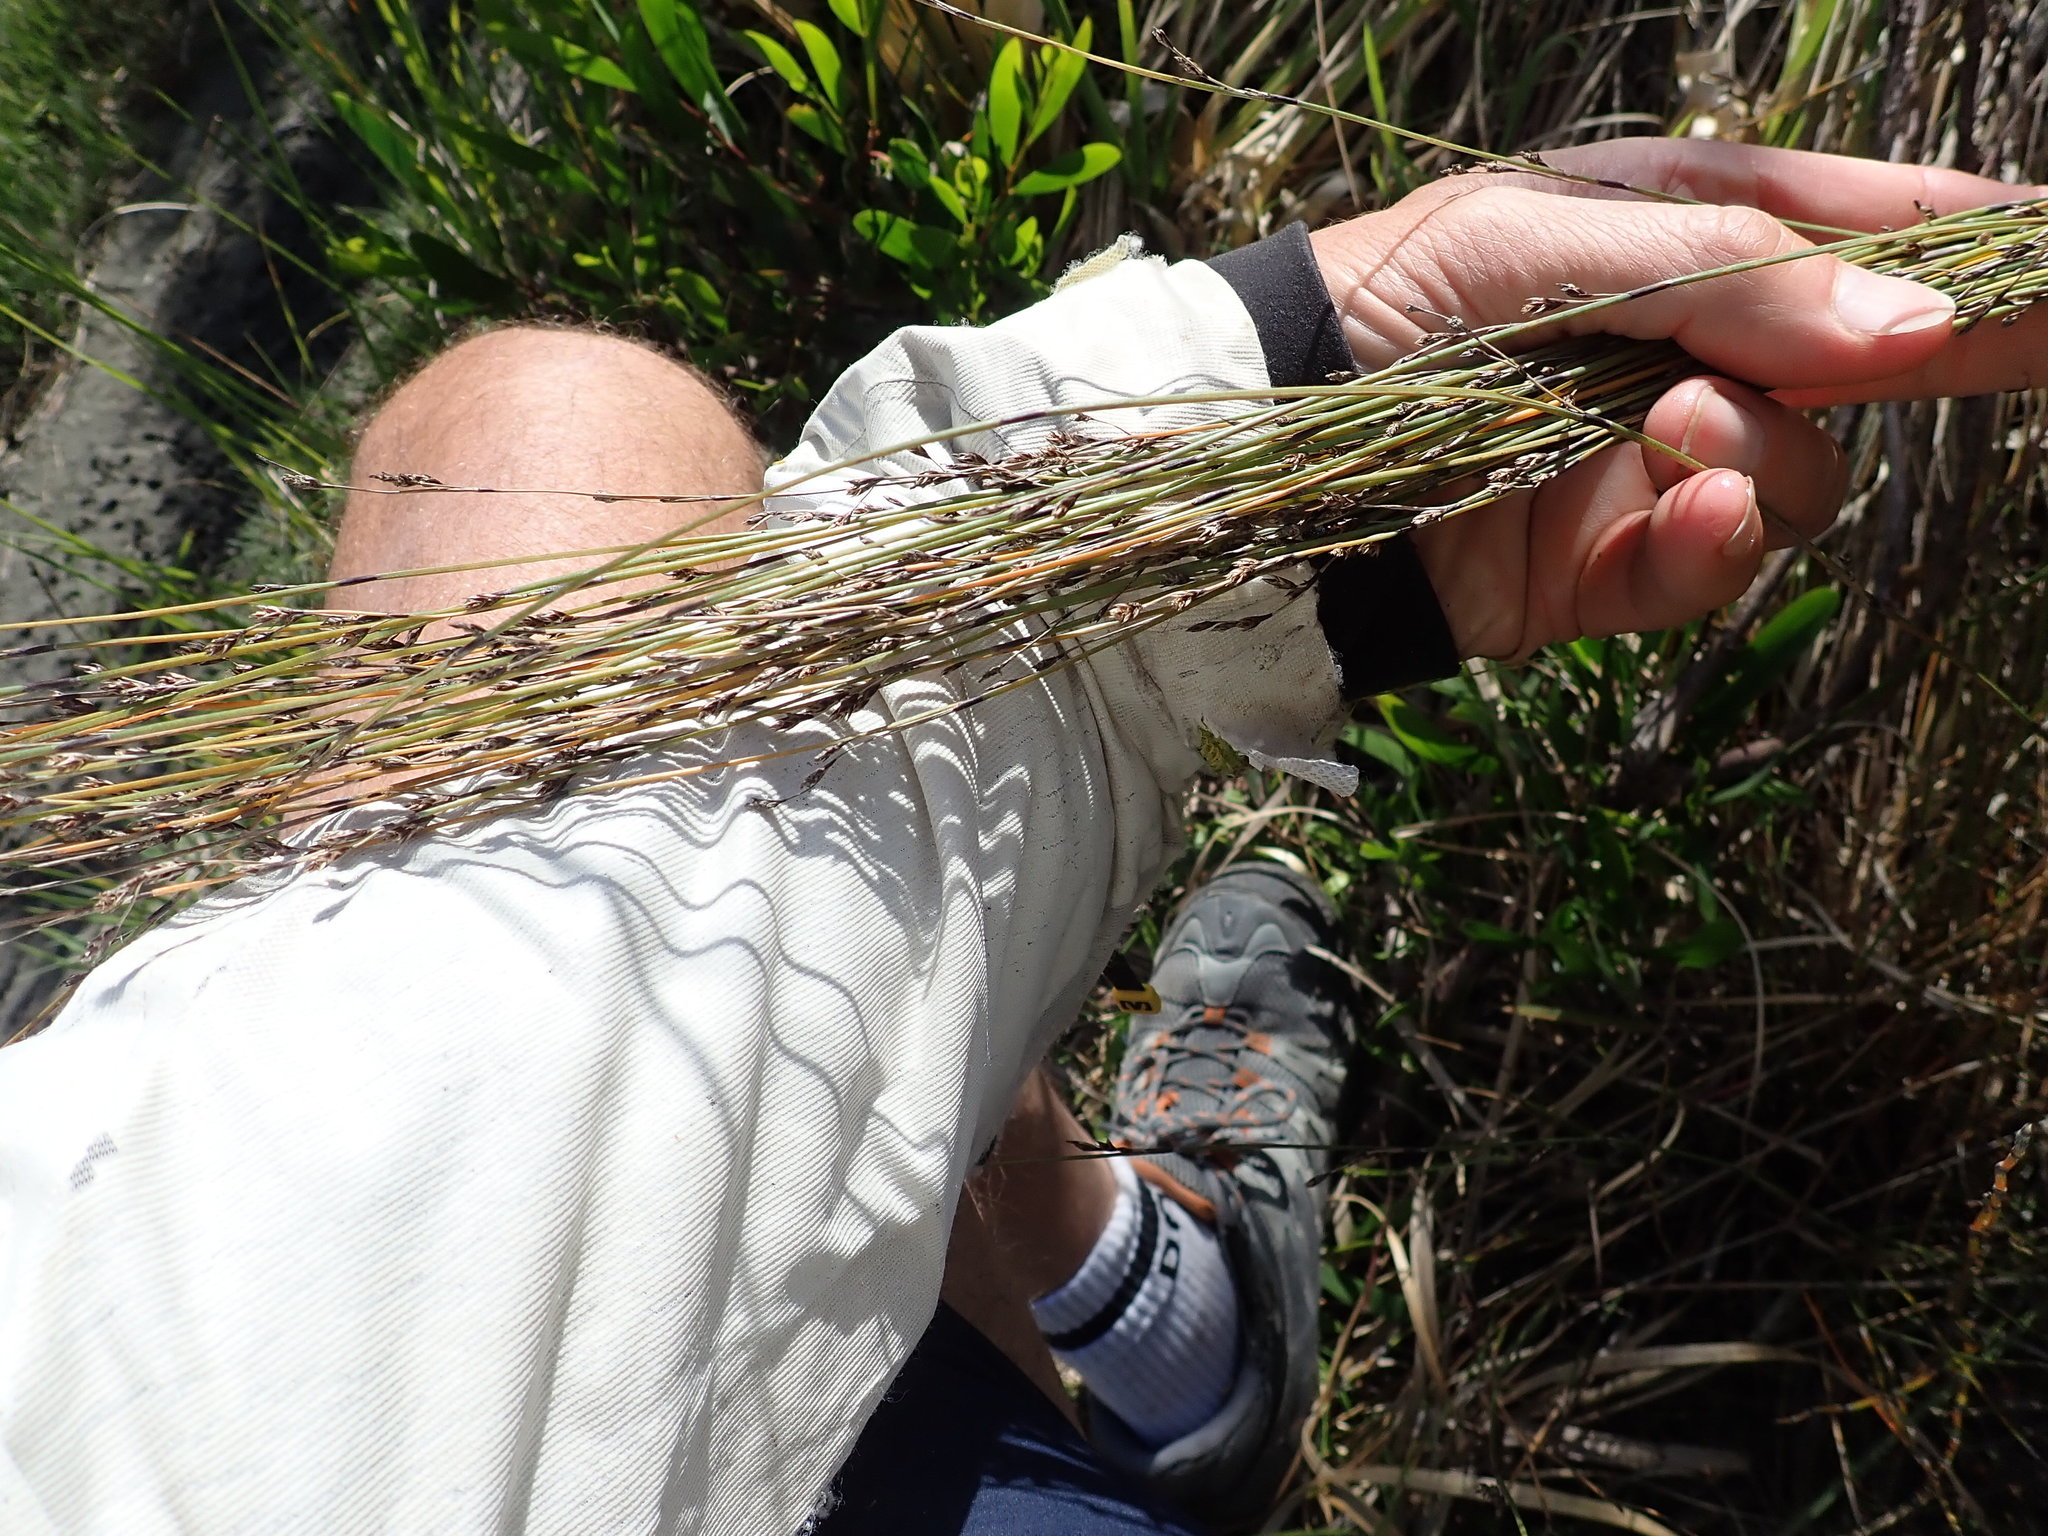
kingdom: Plantae
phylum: Tracheophyta
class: Liliopsida
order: Poales
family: Restionaceae
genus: Apodasmia
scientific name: Apodasmia similis
